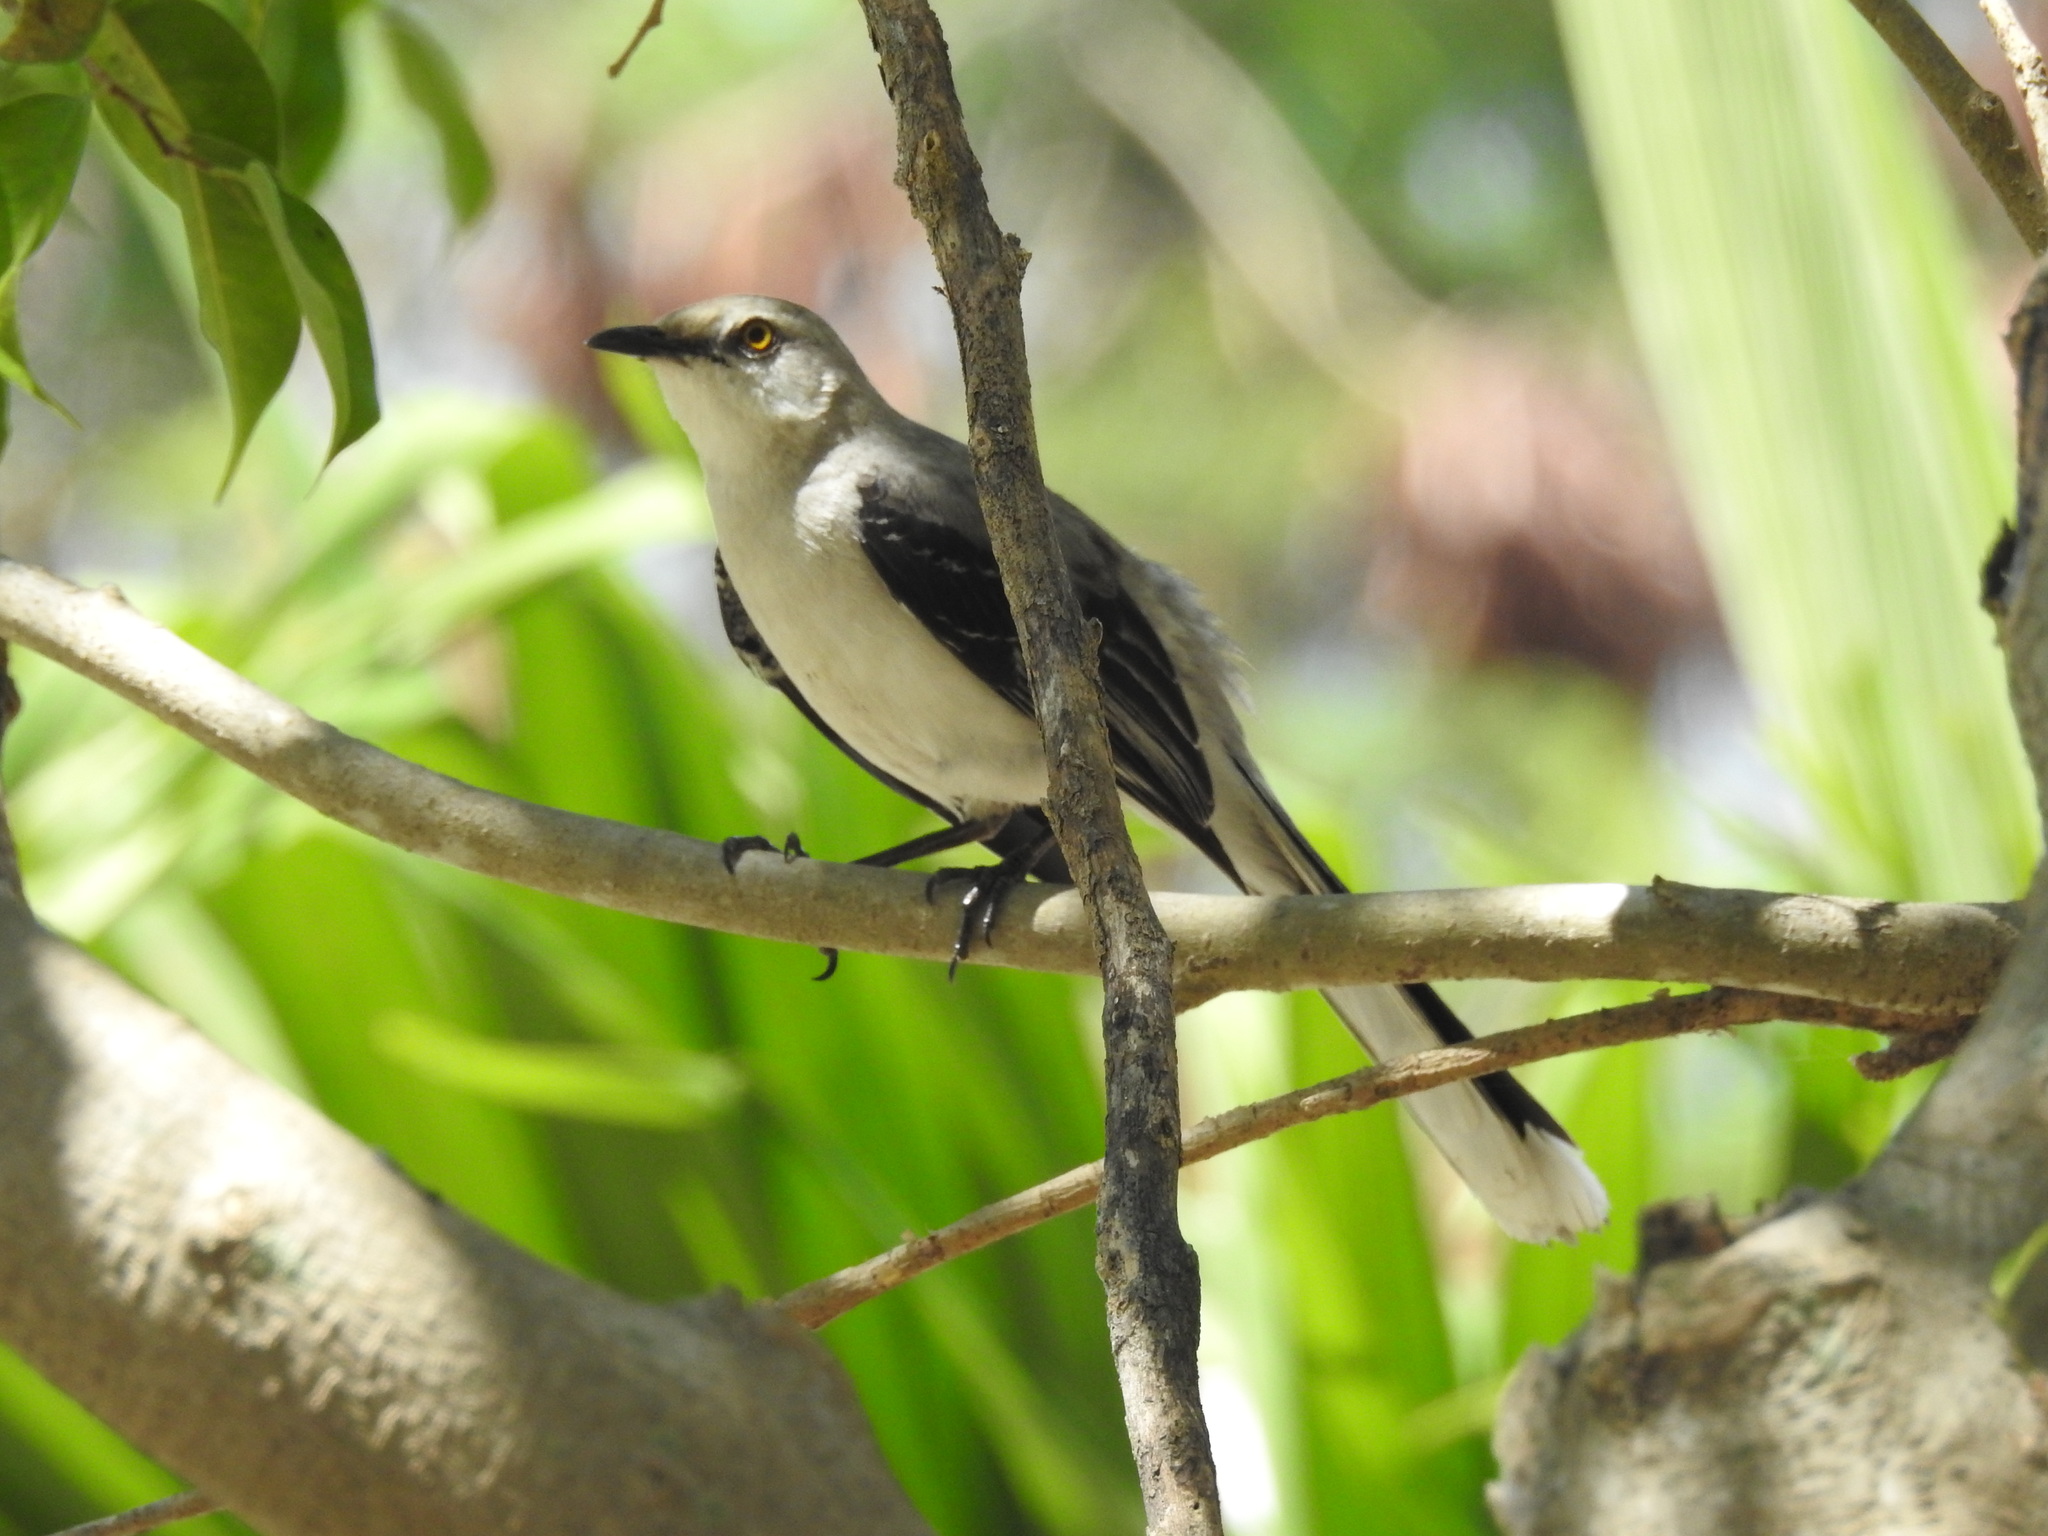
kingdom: Animalia
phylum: Chordata
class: Aves
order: Passeriformes
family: Mimidae
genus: Mimus
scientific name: Mimus gilvus
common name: Tropical mockingbird
